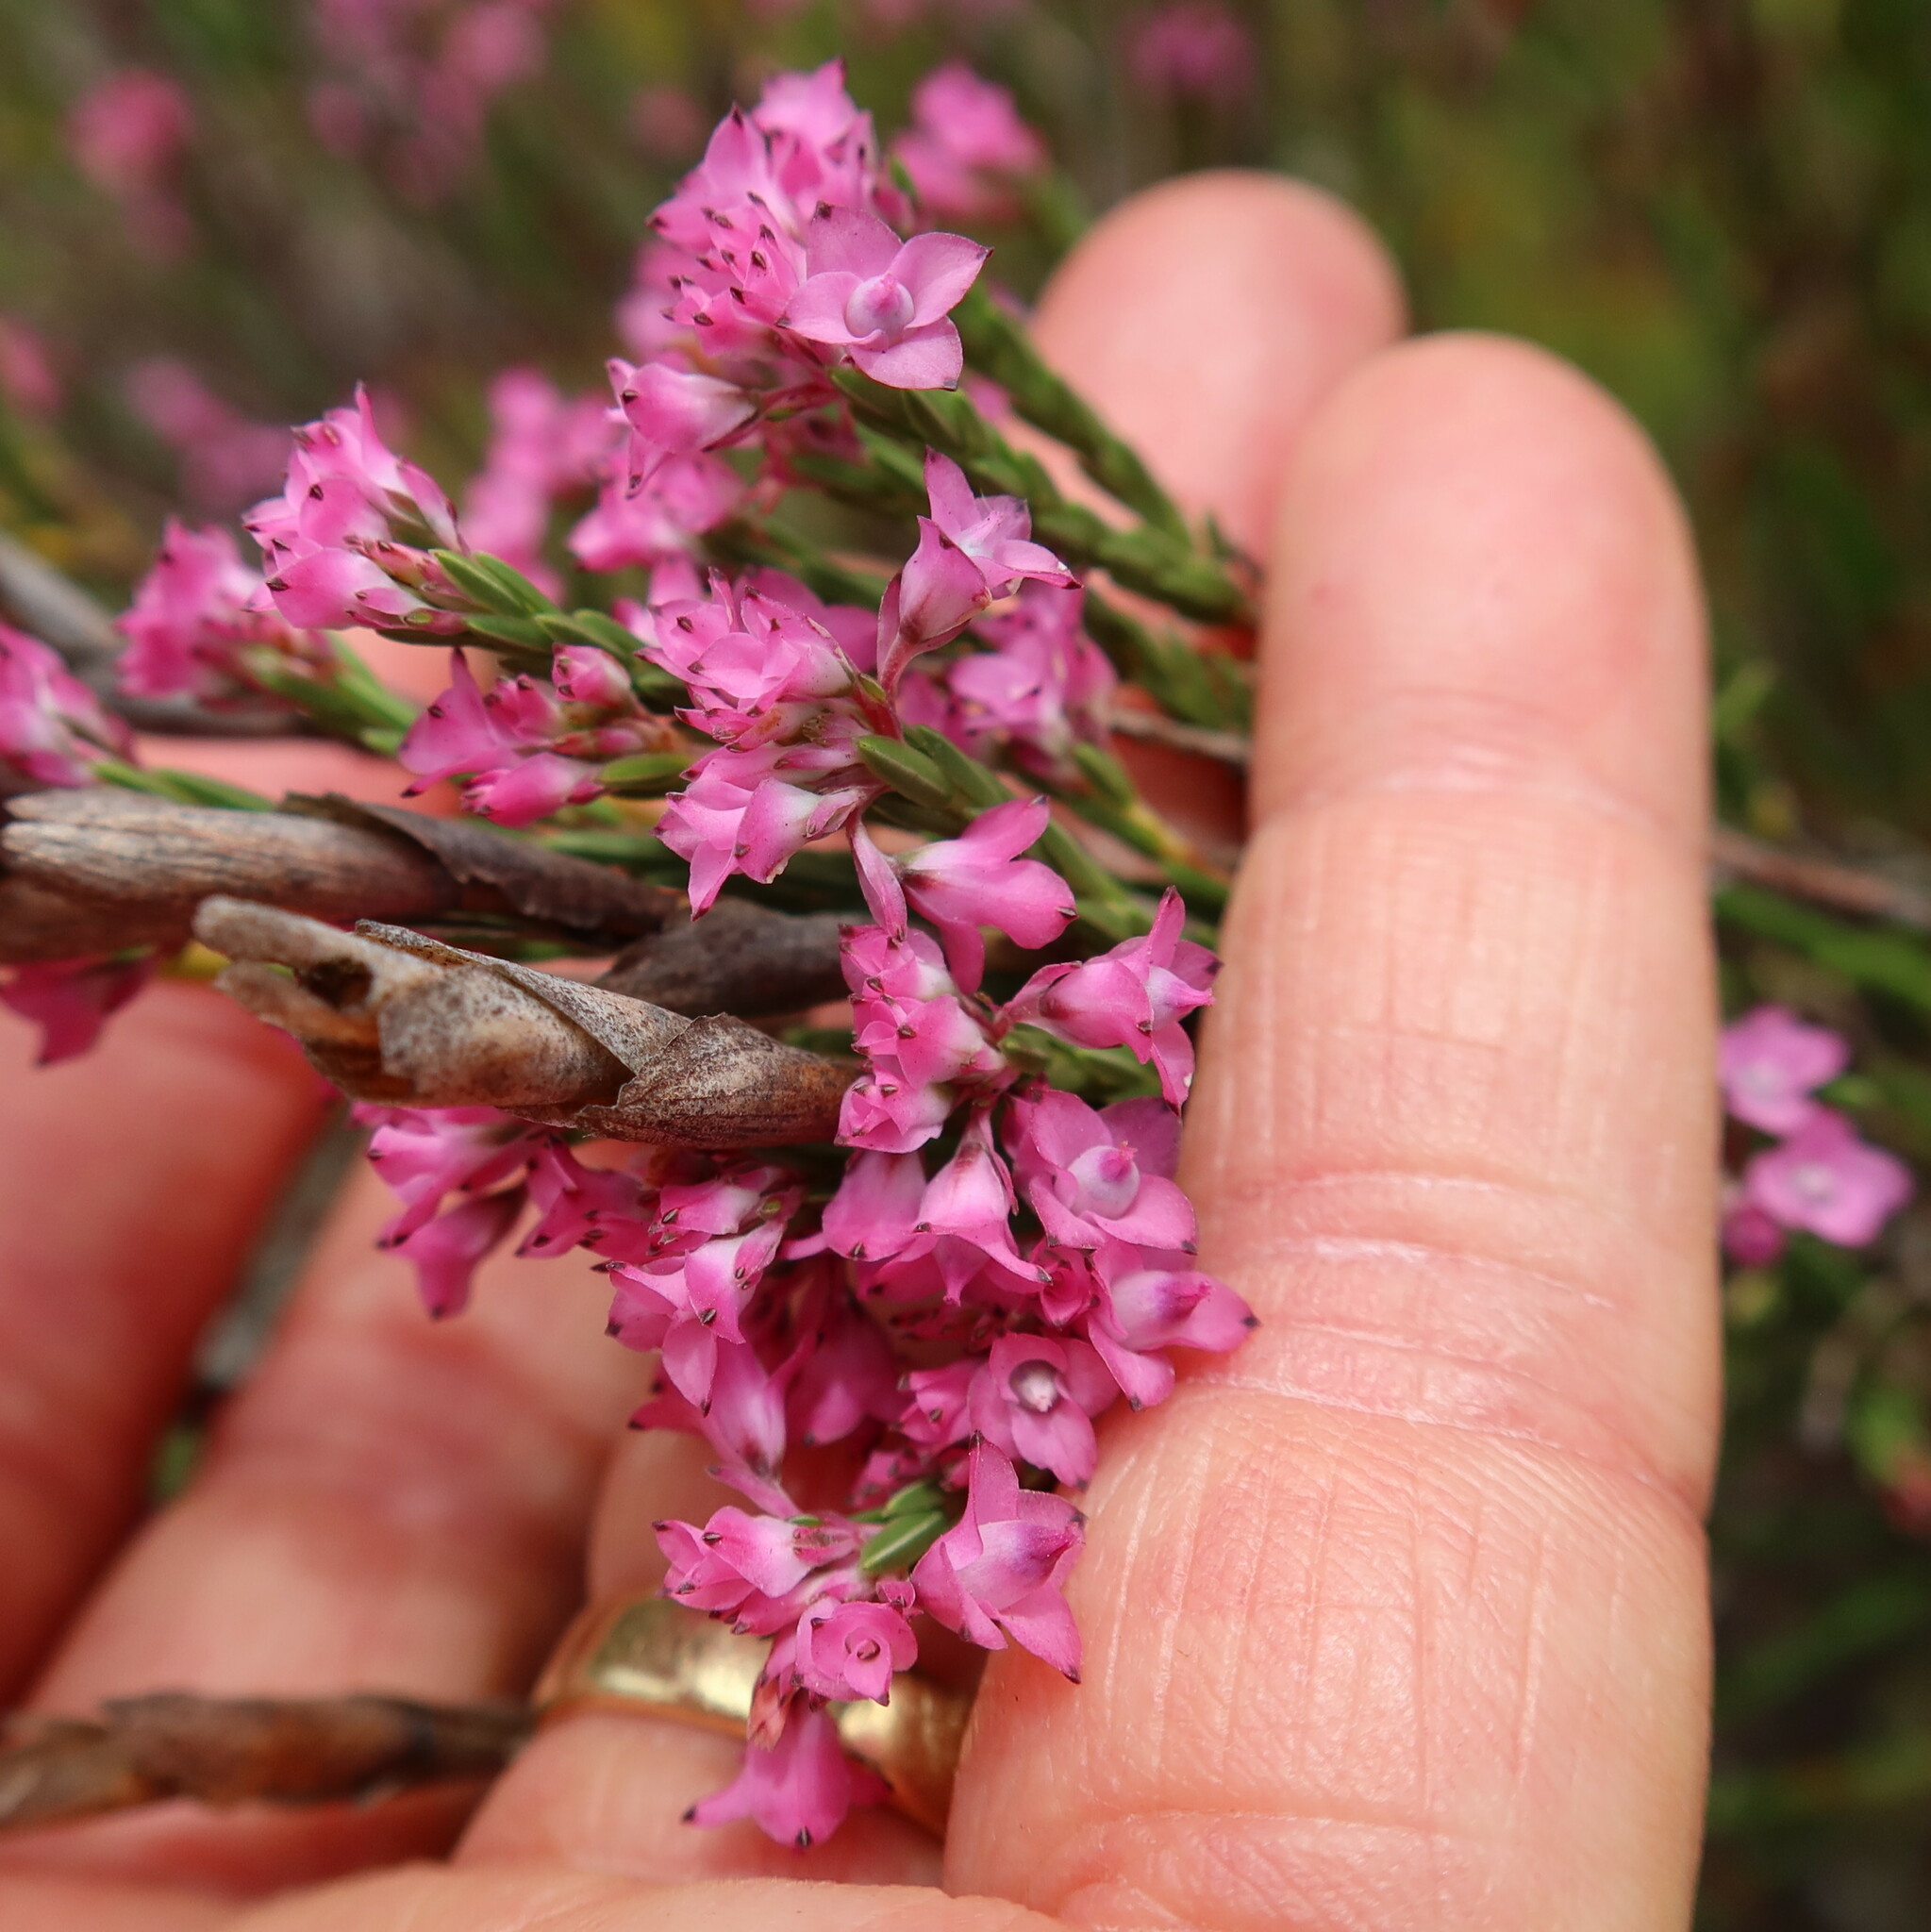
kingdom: Plantae
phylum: Tracheophyta
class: Magnoliopsida
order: Ericales
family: Ericaceae
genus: Erica
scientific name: Erica corifolia
